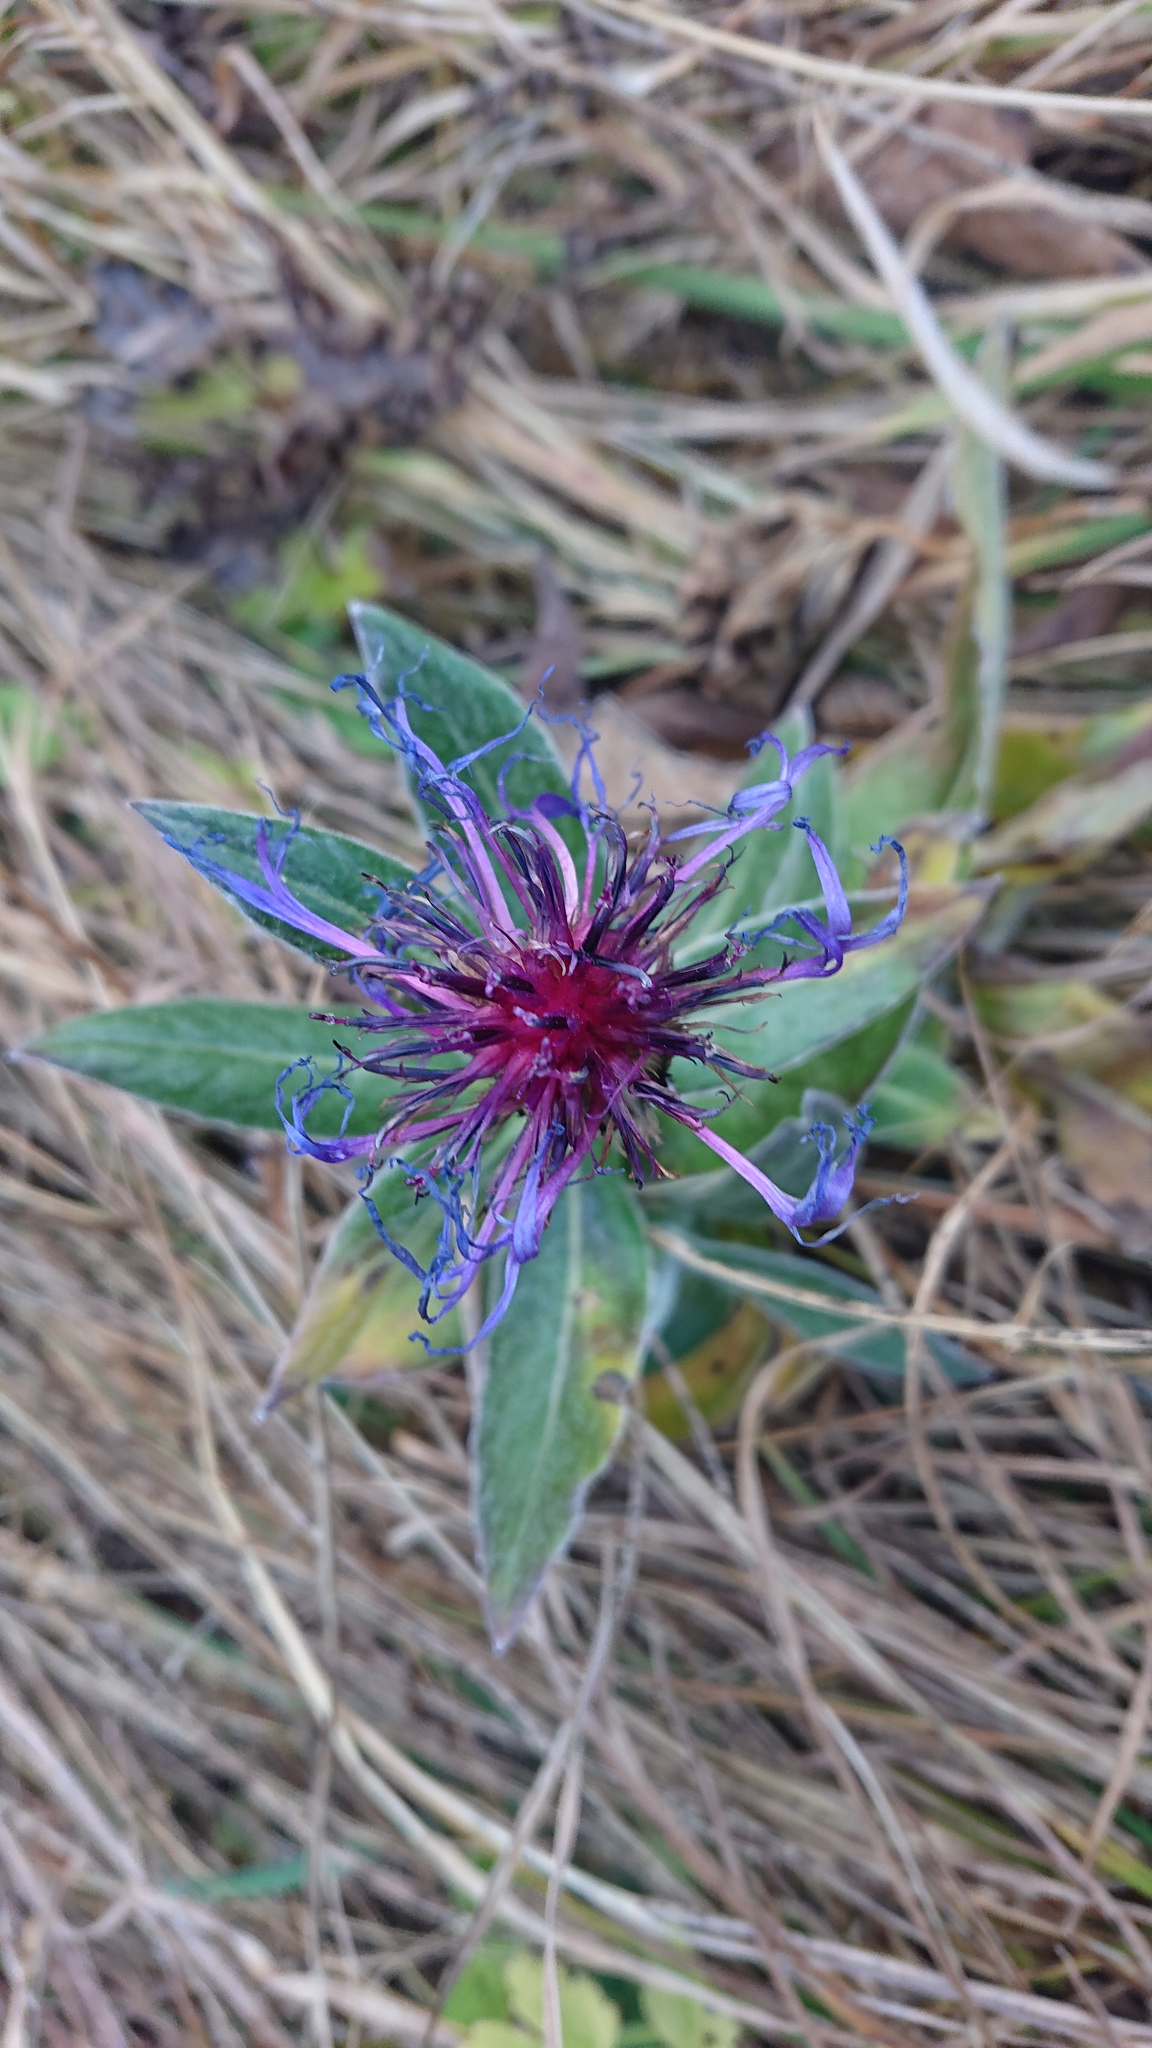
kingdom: Plantae
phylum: Tracheophyta
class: Magnoliopsida
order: Asterales
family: Asteraceae
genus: Centaurea
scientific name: Centaurea montana
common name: Perennial cornflower
